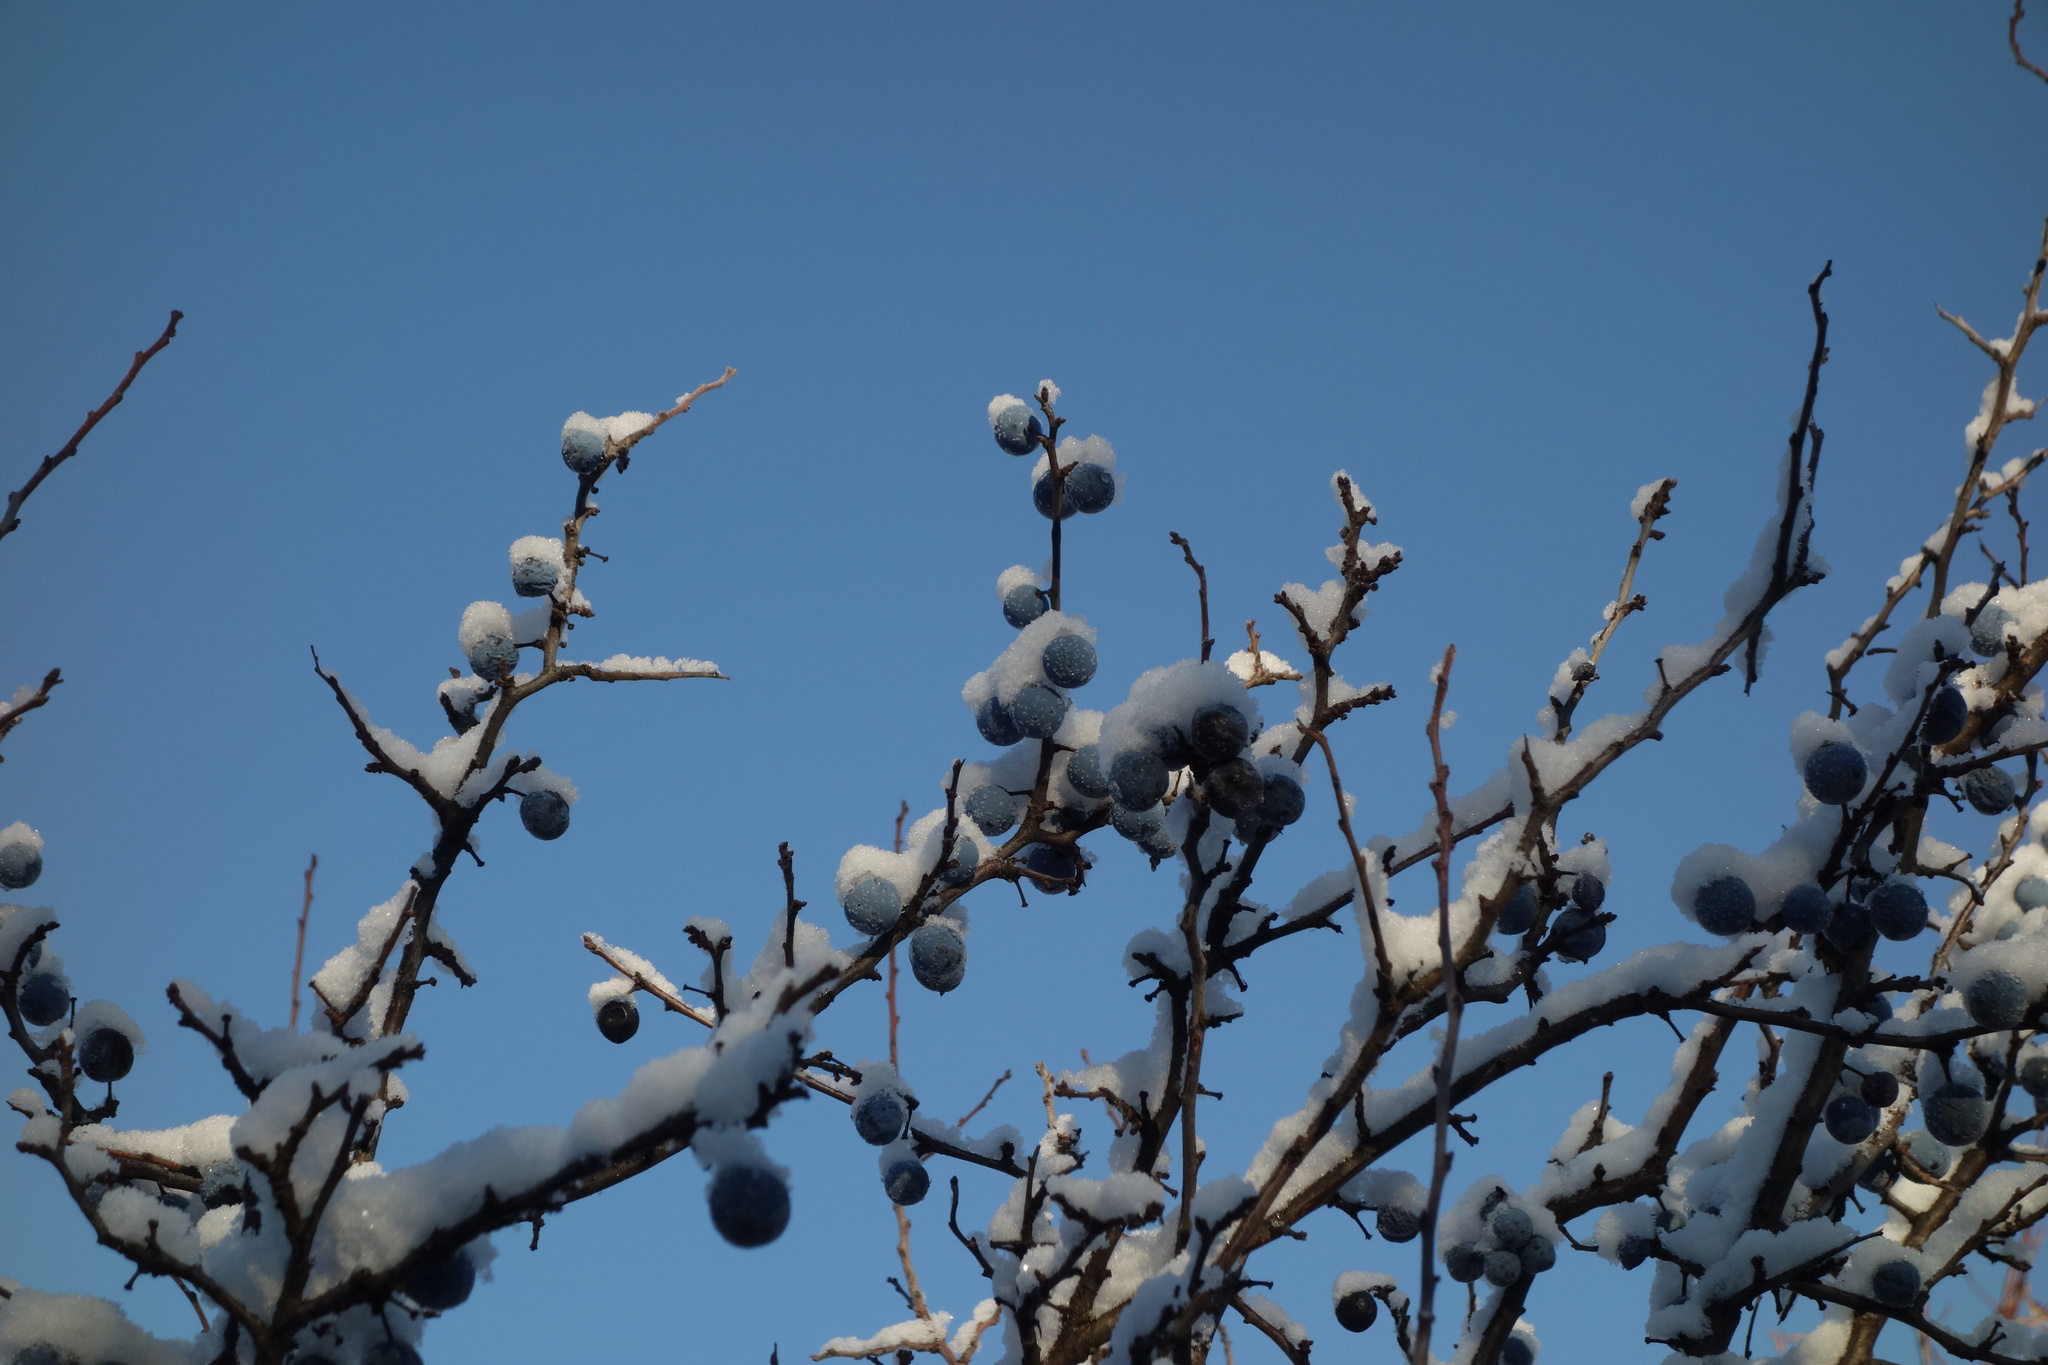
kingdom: Plantae
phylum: Tracheophyta
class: Magnoliopsida
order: Rosales
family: Rosaceae
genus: Prunus
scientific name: Prunus spinosa
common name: Blackthorn
